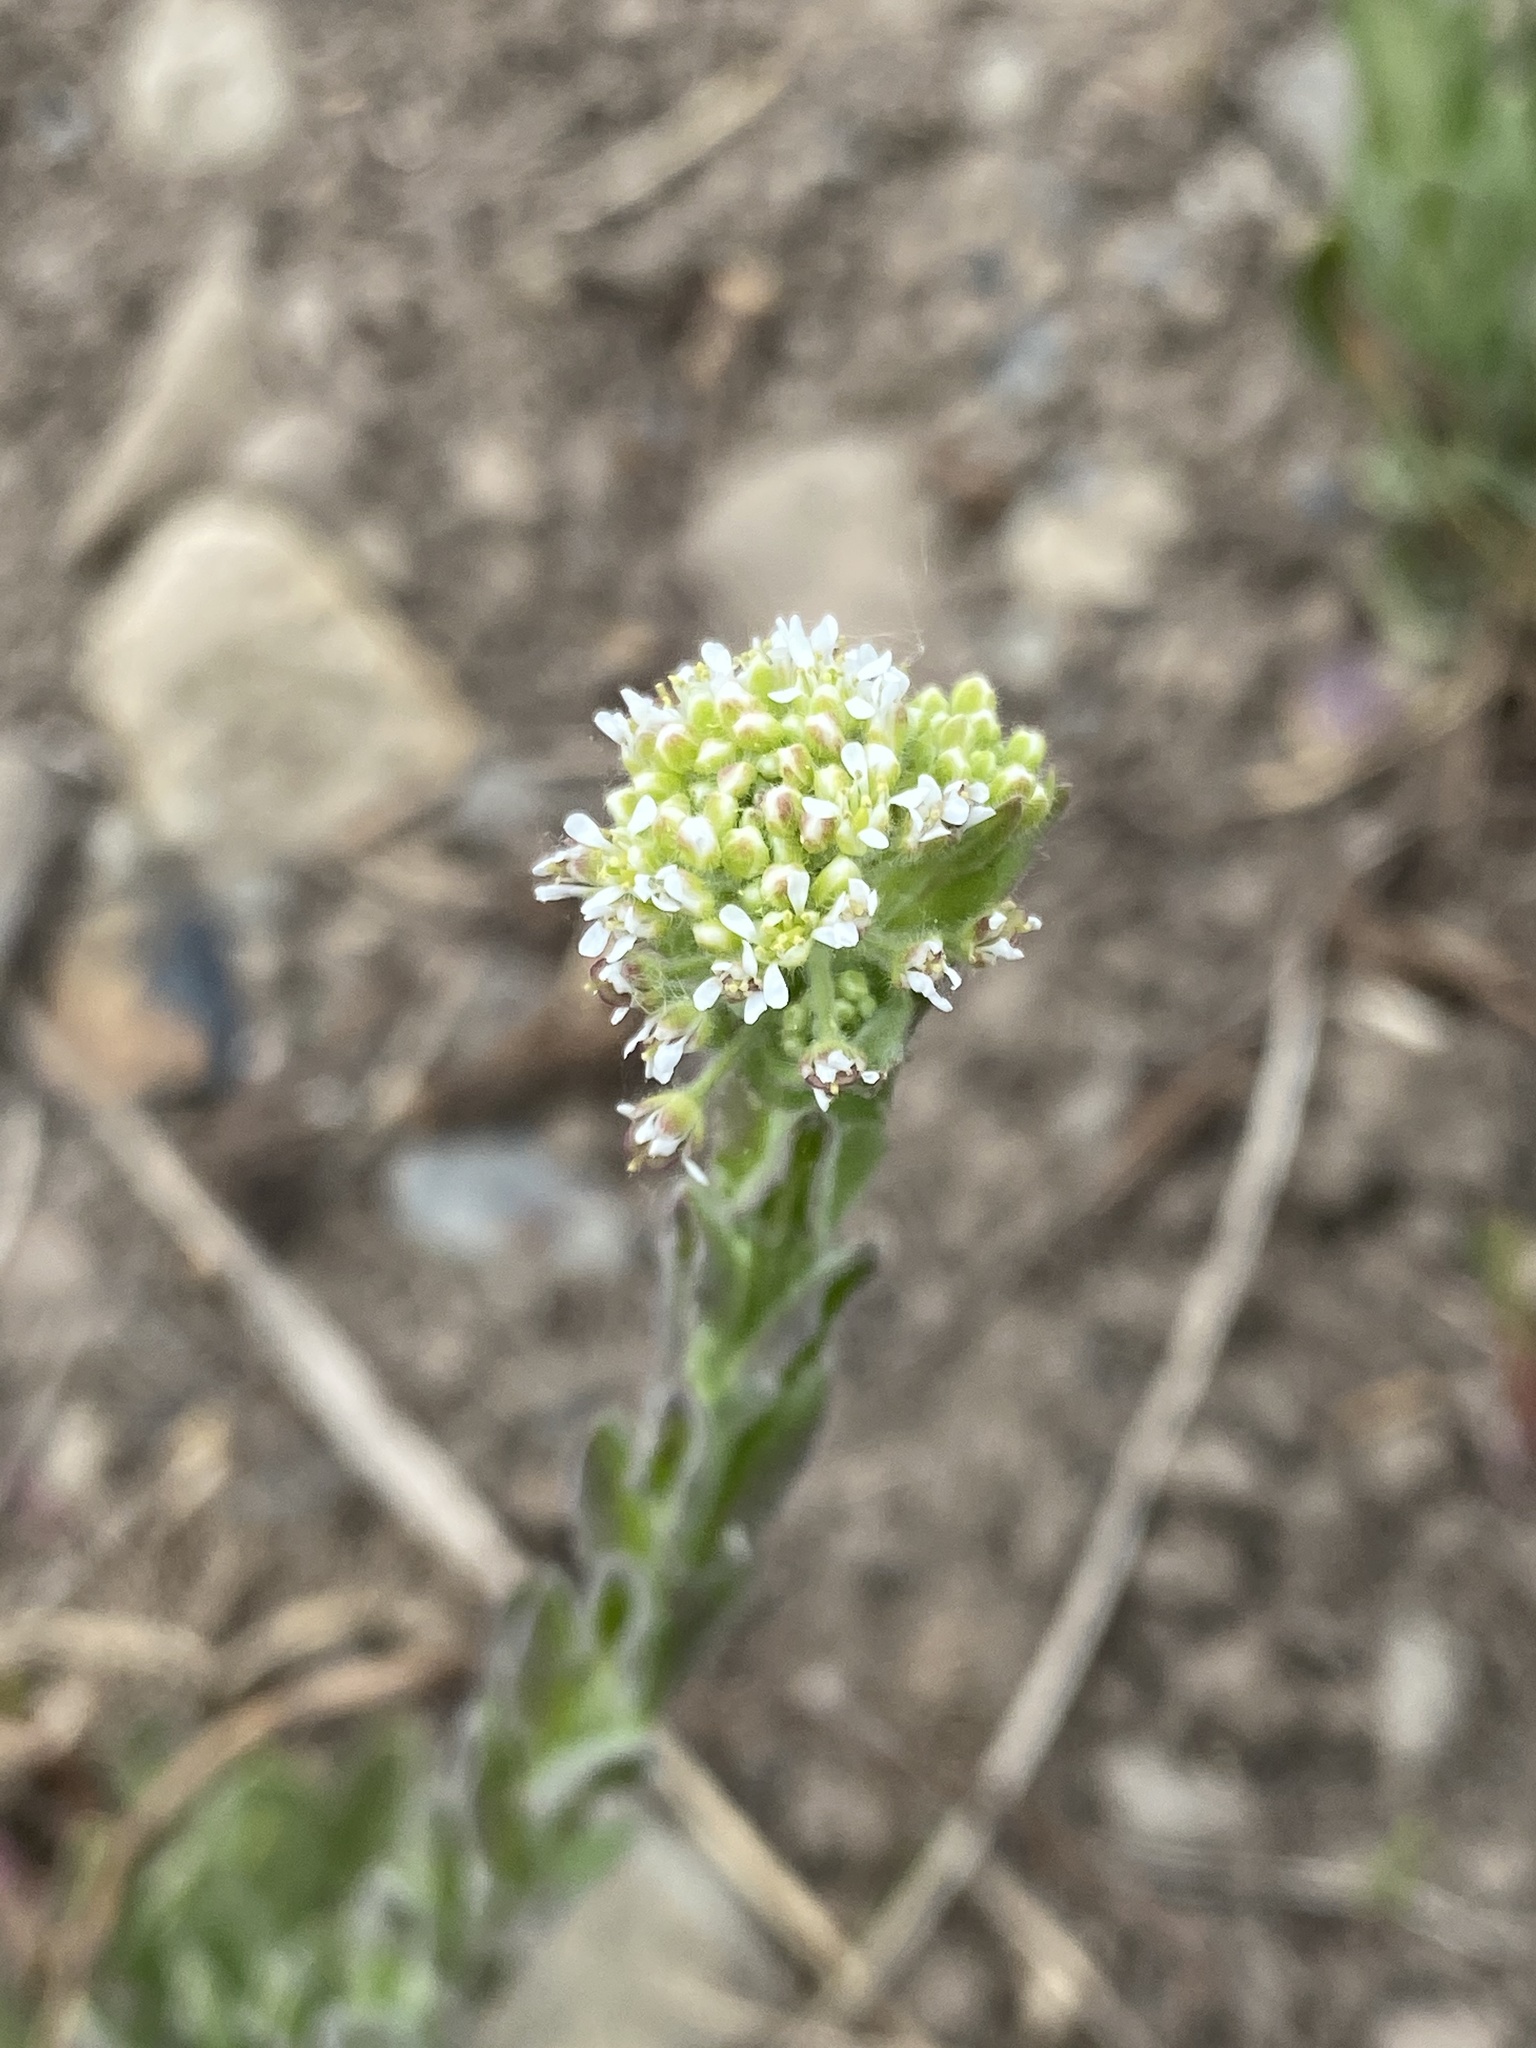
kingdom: Plantae
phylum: Tracheophyta
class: Magnoliopsida
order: Brassicales
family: Brassicaceae
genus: Lepidium
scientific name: Lepidium campestre
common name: Field pepperwort
